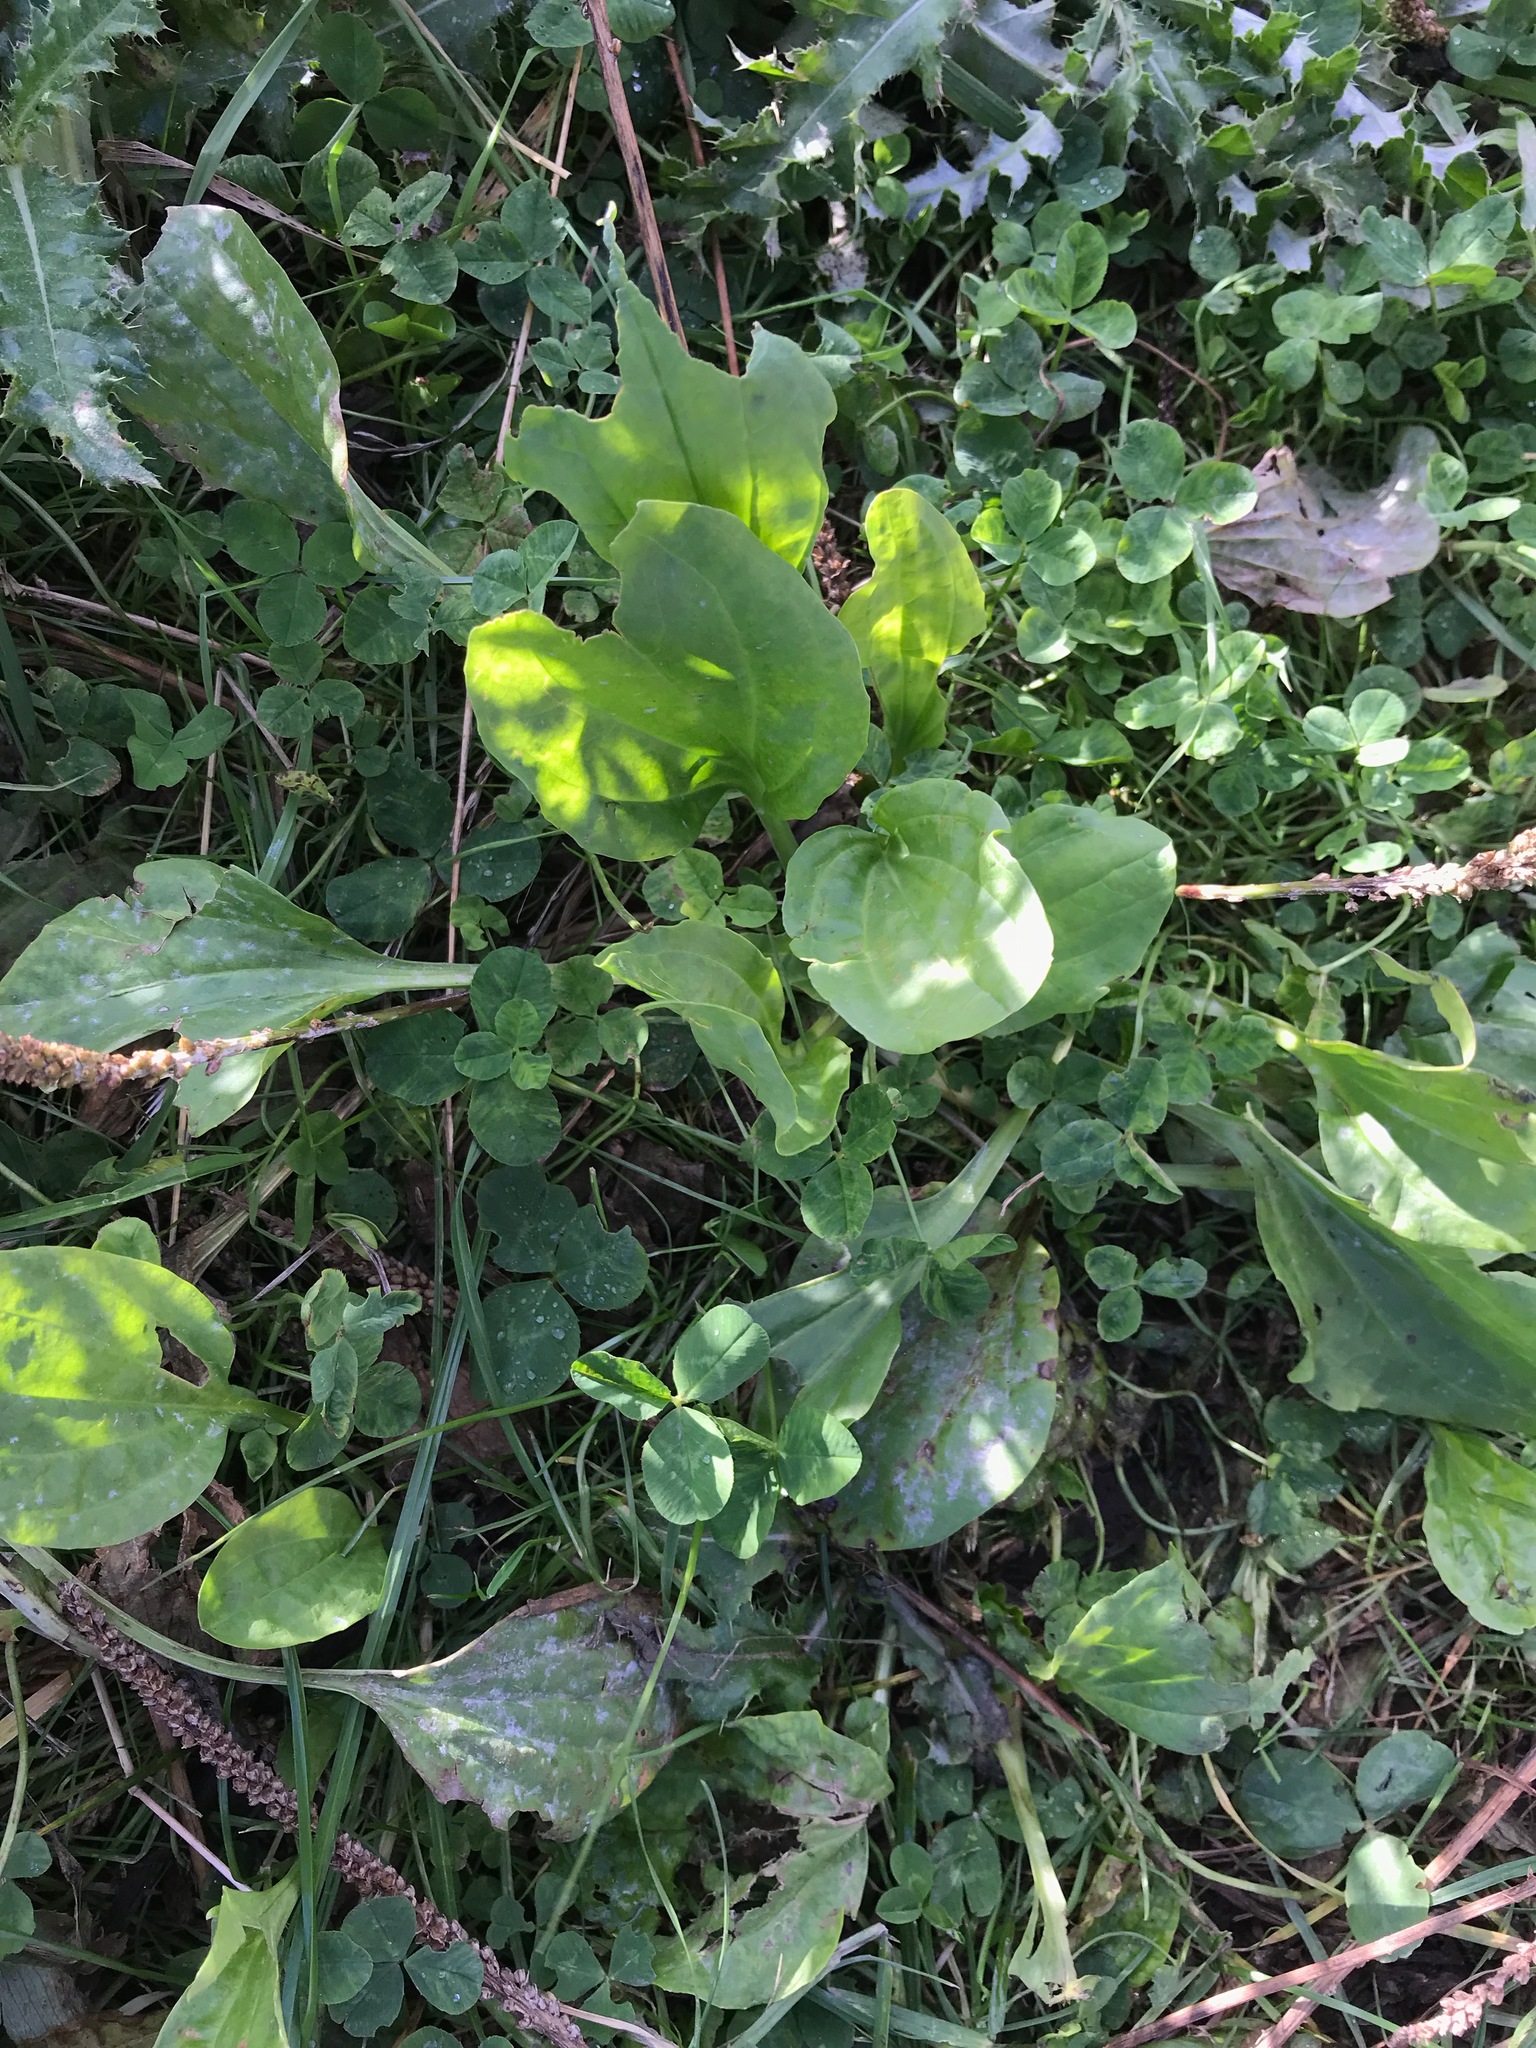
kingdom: Plantae
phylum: Tracheophyta
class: Magnoliopsida
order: Lamiales
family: Plantaginaceae
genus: Plantago
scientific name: Plantago major
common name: Common plantain
